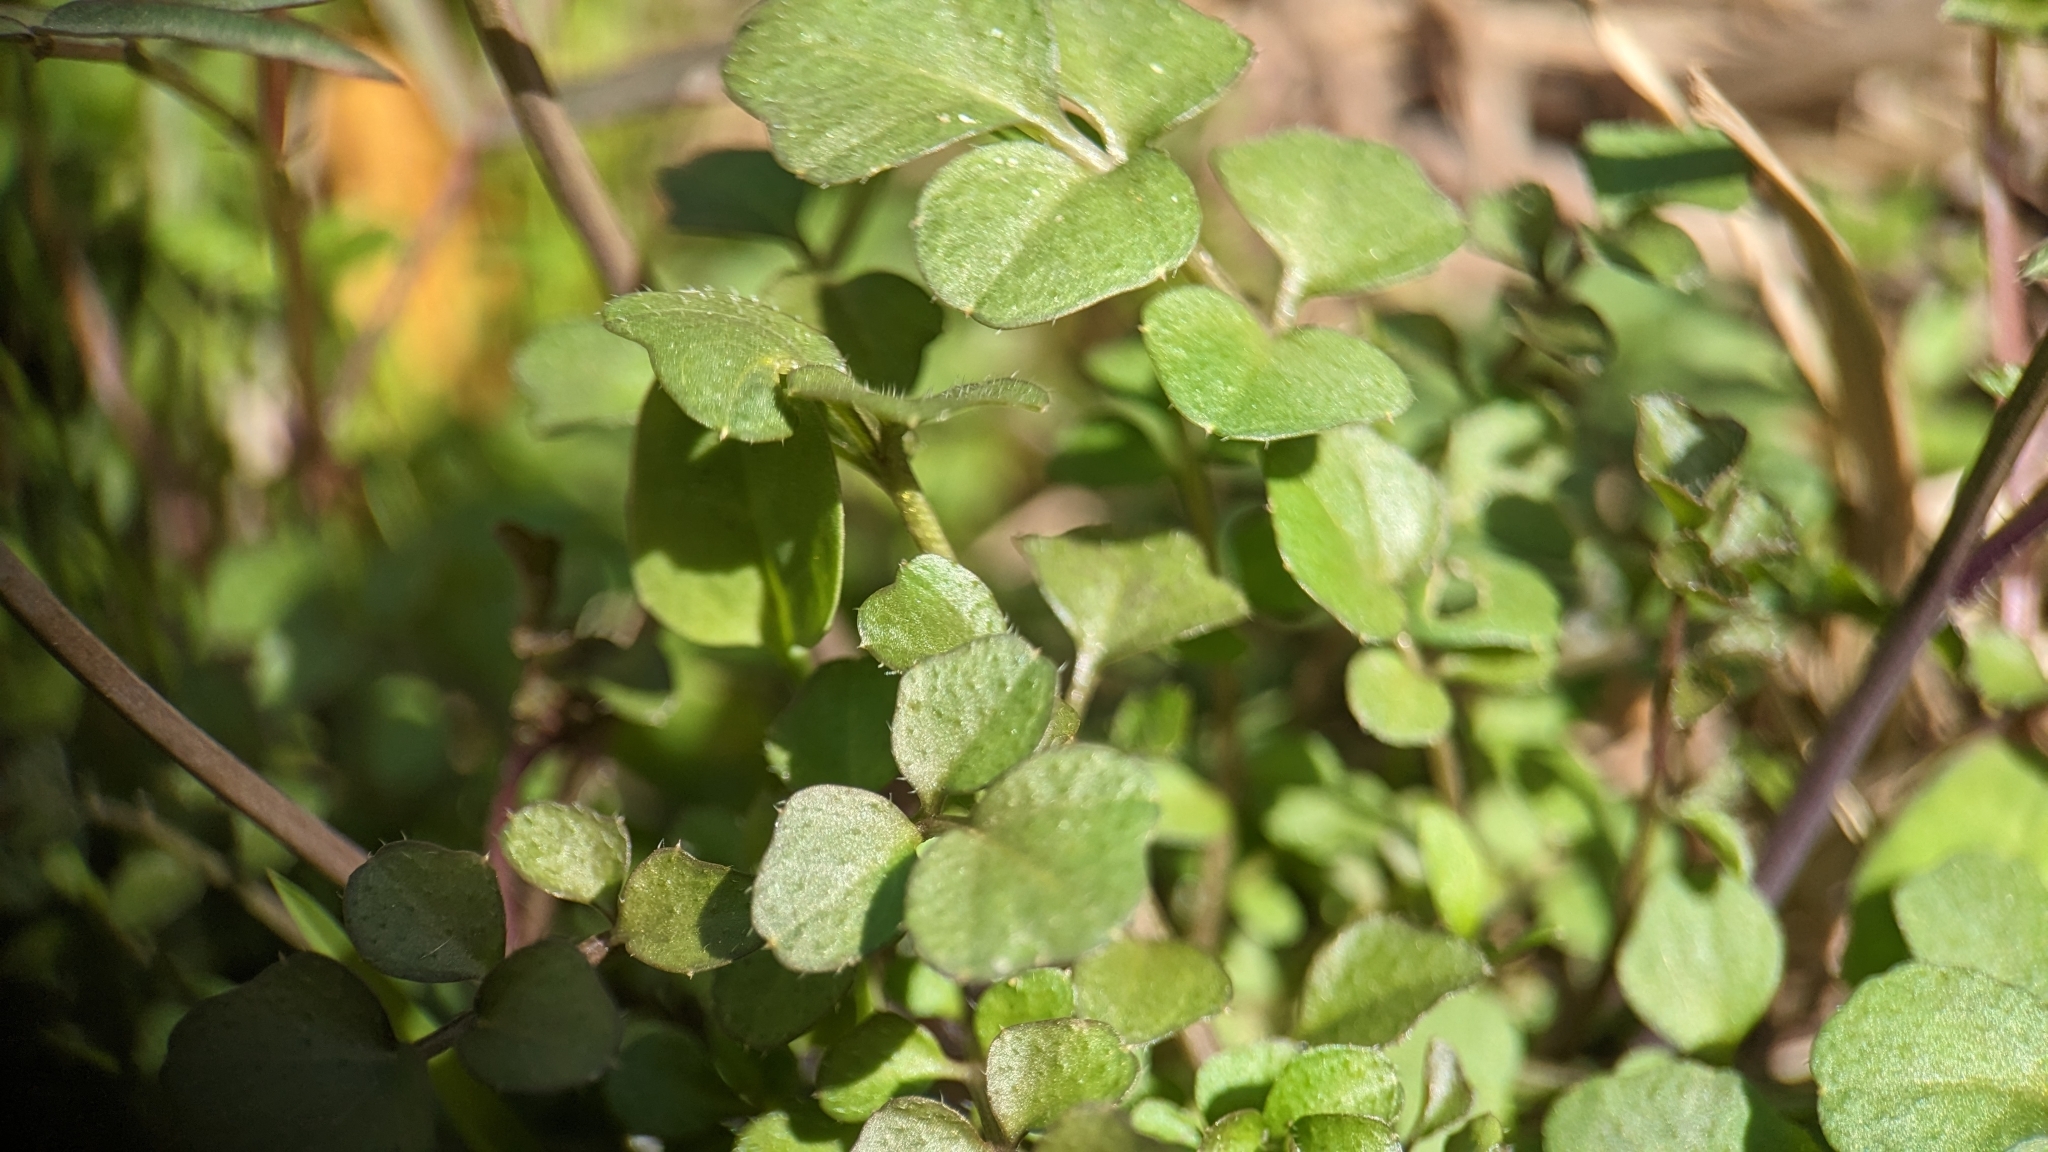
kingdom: Plantae
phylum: Tracheophyta
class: Magnoliopsida
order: Brassicales
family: Brassicaceae
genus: Cardamine
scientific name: Cardamine hirsuta
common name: Hairy bittercress
